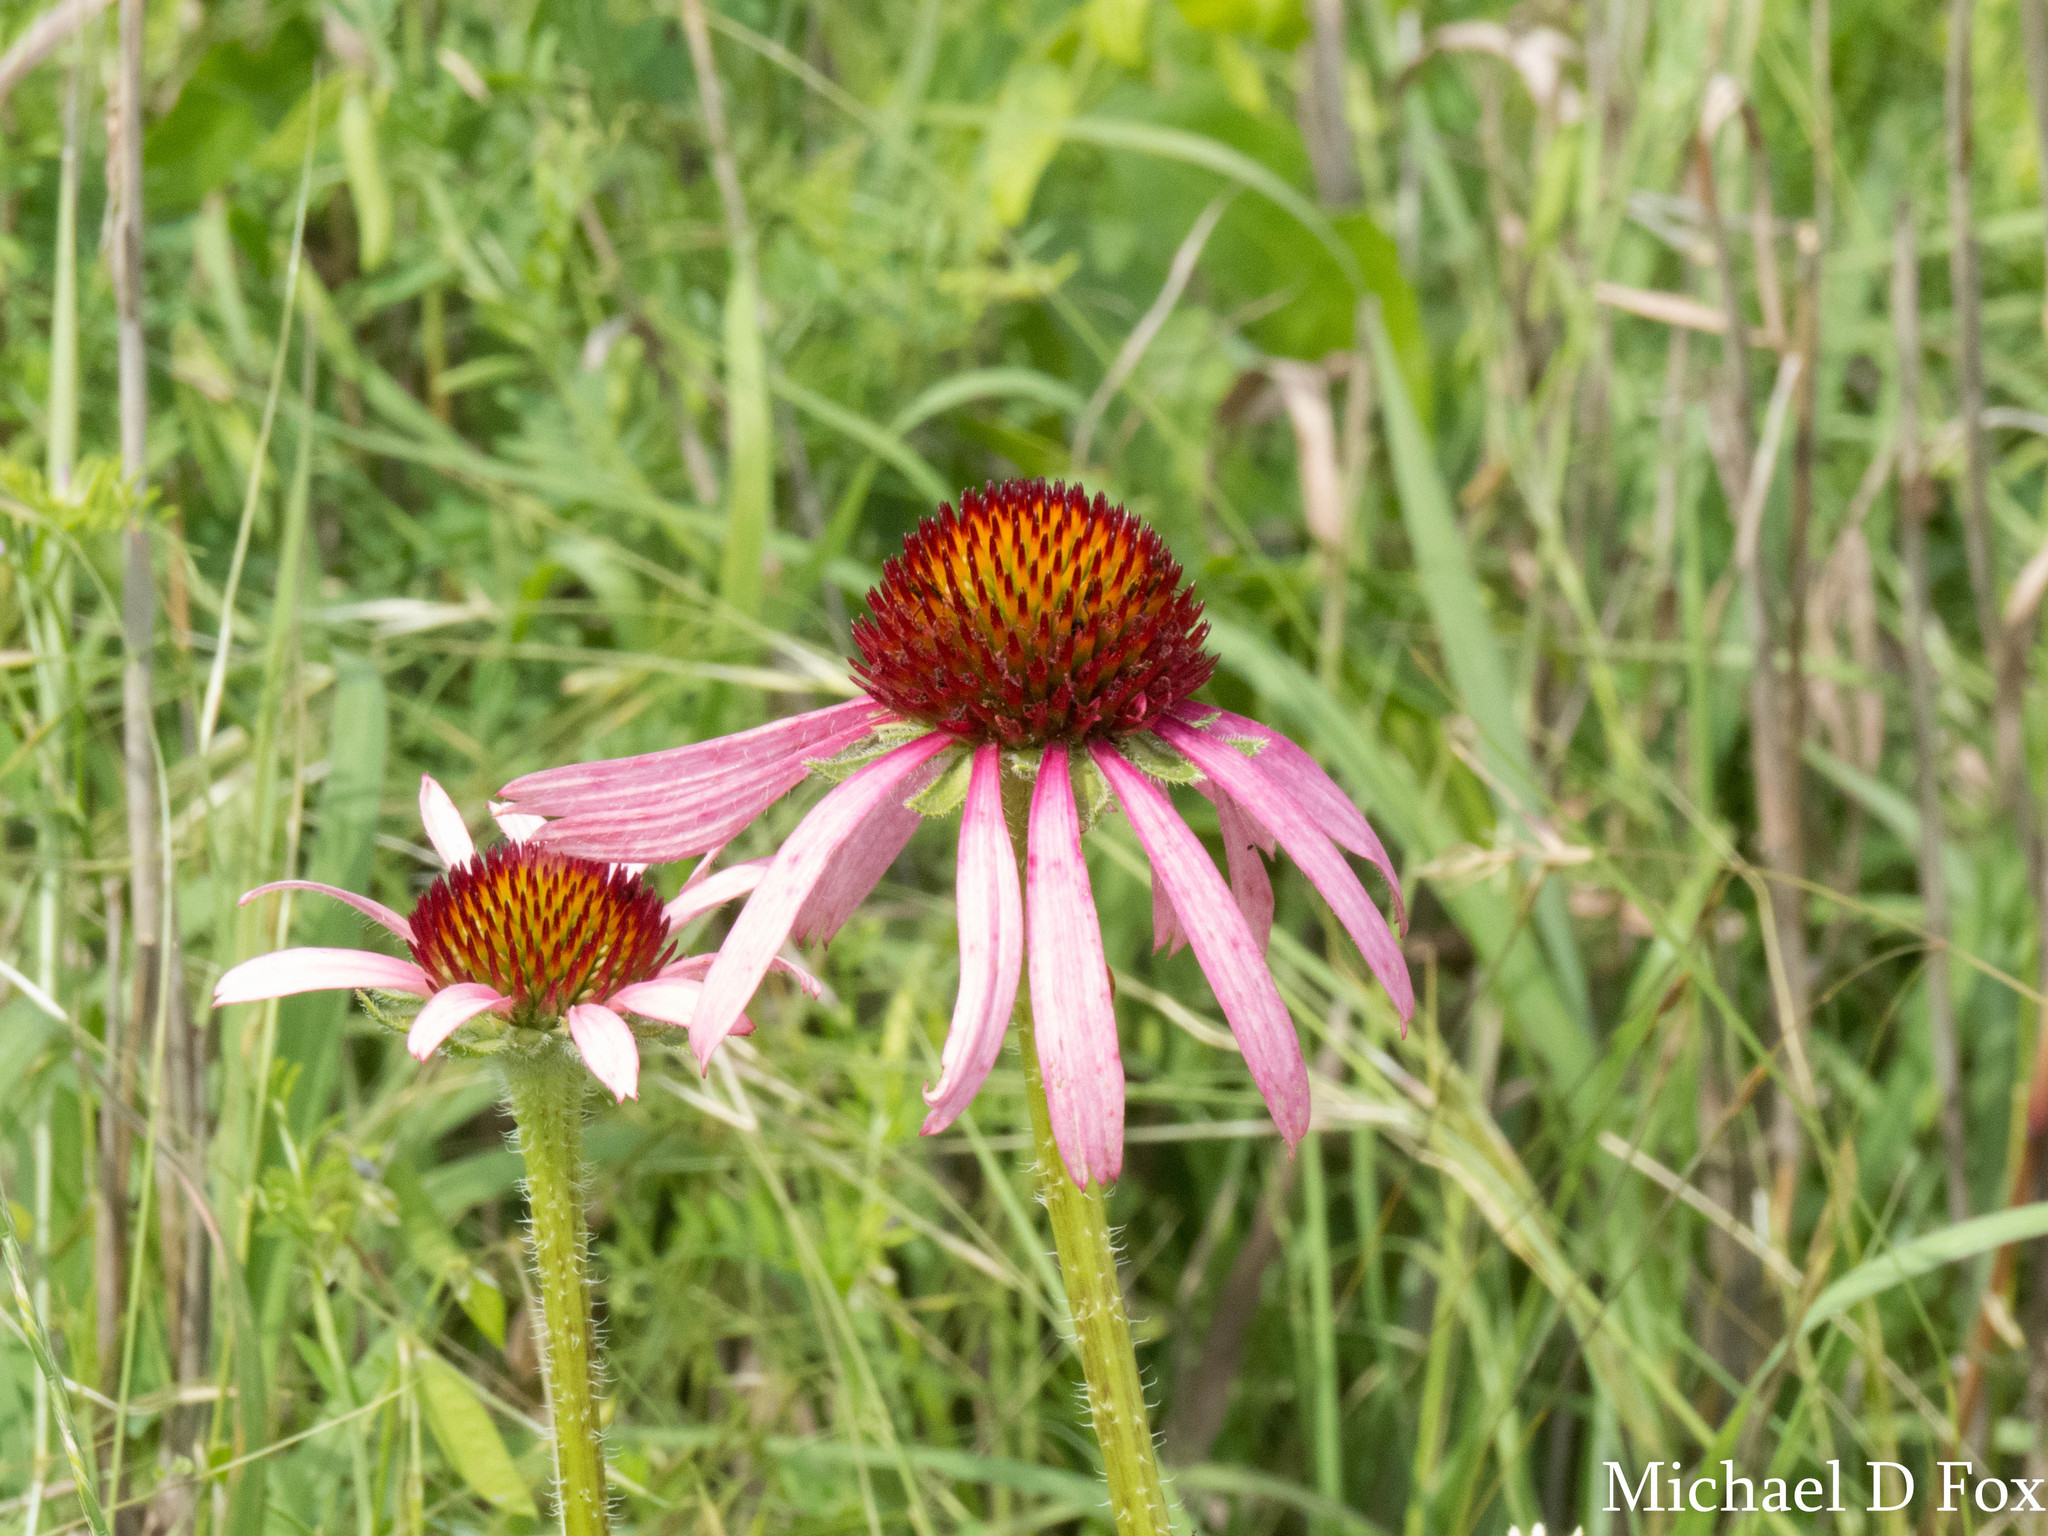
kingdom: Plantae
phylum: Tracheophyta
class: Magnoliopsida
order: Asterales
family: Asteraceae
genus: Echinacea
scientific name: Echinacea angustifolia
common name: Black-sampson echinacea
